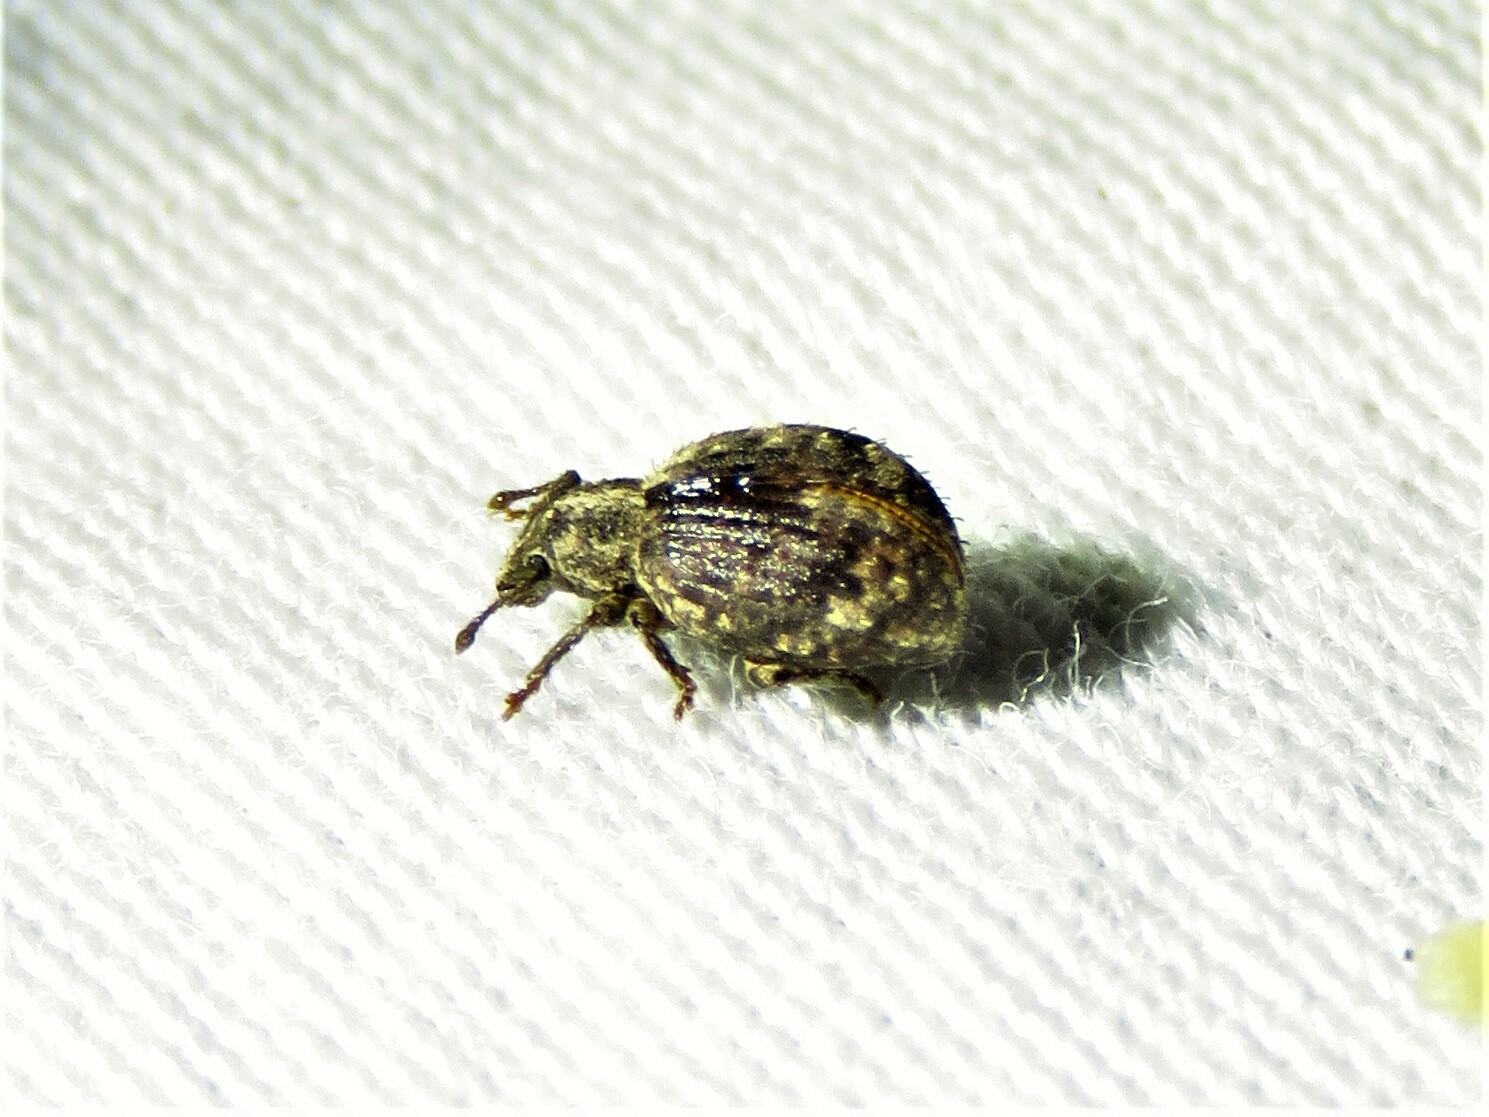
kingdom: Animalia
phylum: Arthropoda
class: Insecta
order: Coleoptera
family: Curculionidae
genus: Myosides
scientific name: Myosides seriehispidus
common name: Broadnosed weevil
